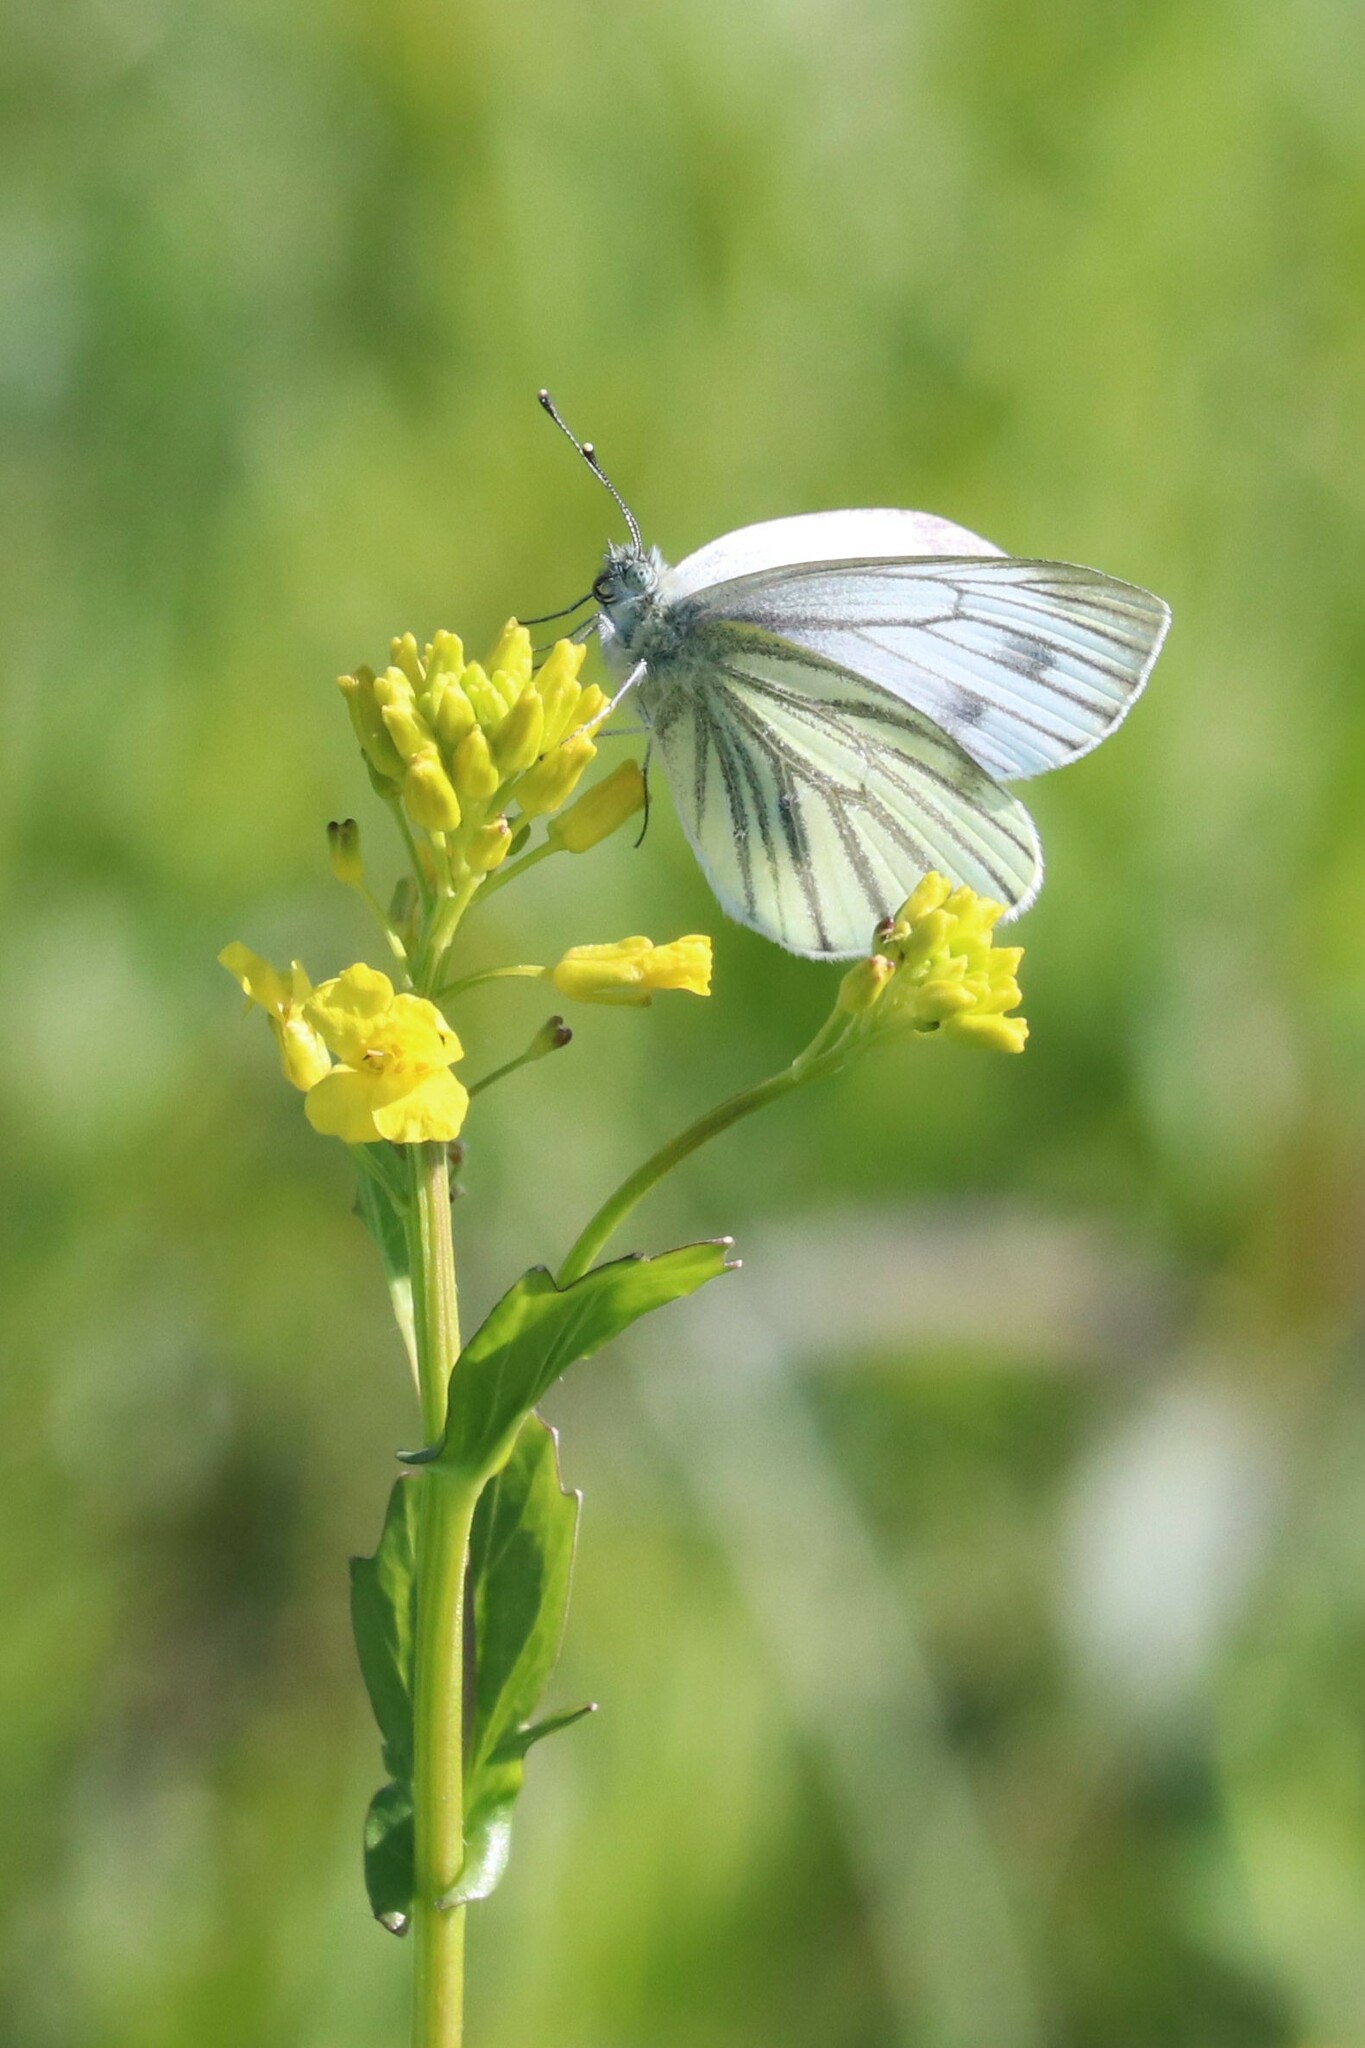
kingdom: Animalia
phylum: Arthropoda
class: Insecta
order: Lepidoptera
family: Pieridae
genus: Pieris
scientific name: Pieris napi
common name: Green-veined white
